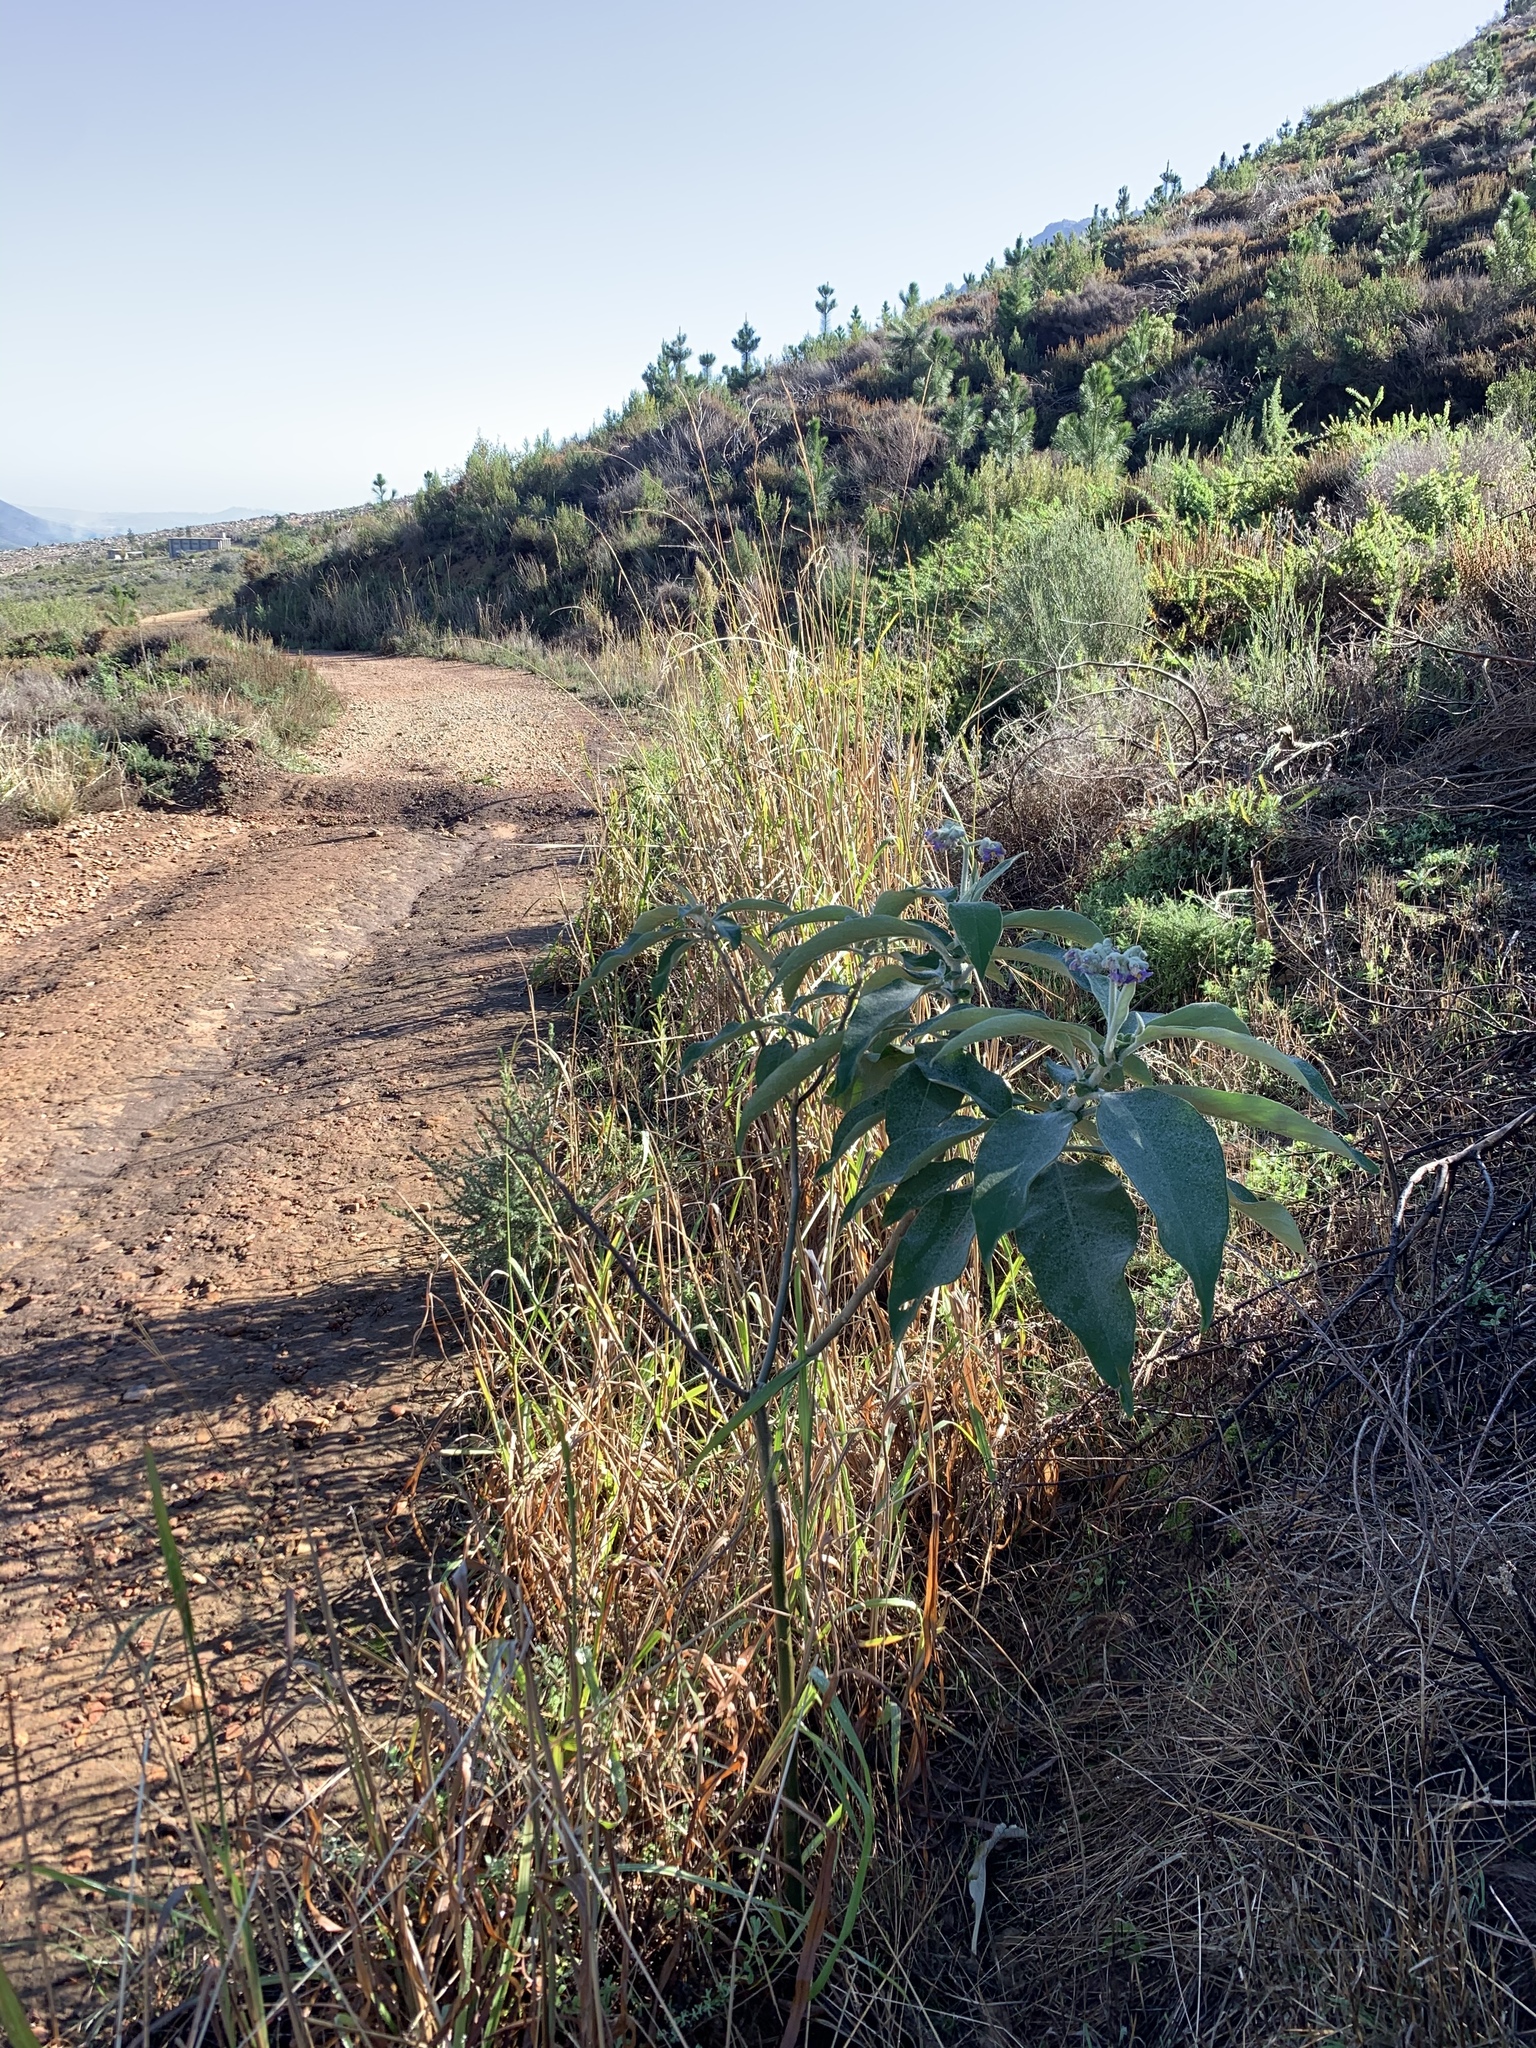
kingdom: Plantae
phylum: Tracheophyta
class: Magnoliopsida
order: Solanales
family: Solanaceae
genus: Solanum
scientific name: Solanum mauritianum
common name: Earleaf nightshade
